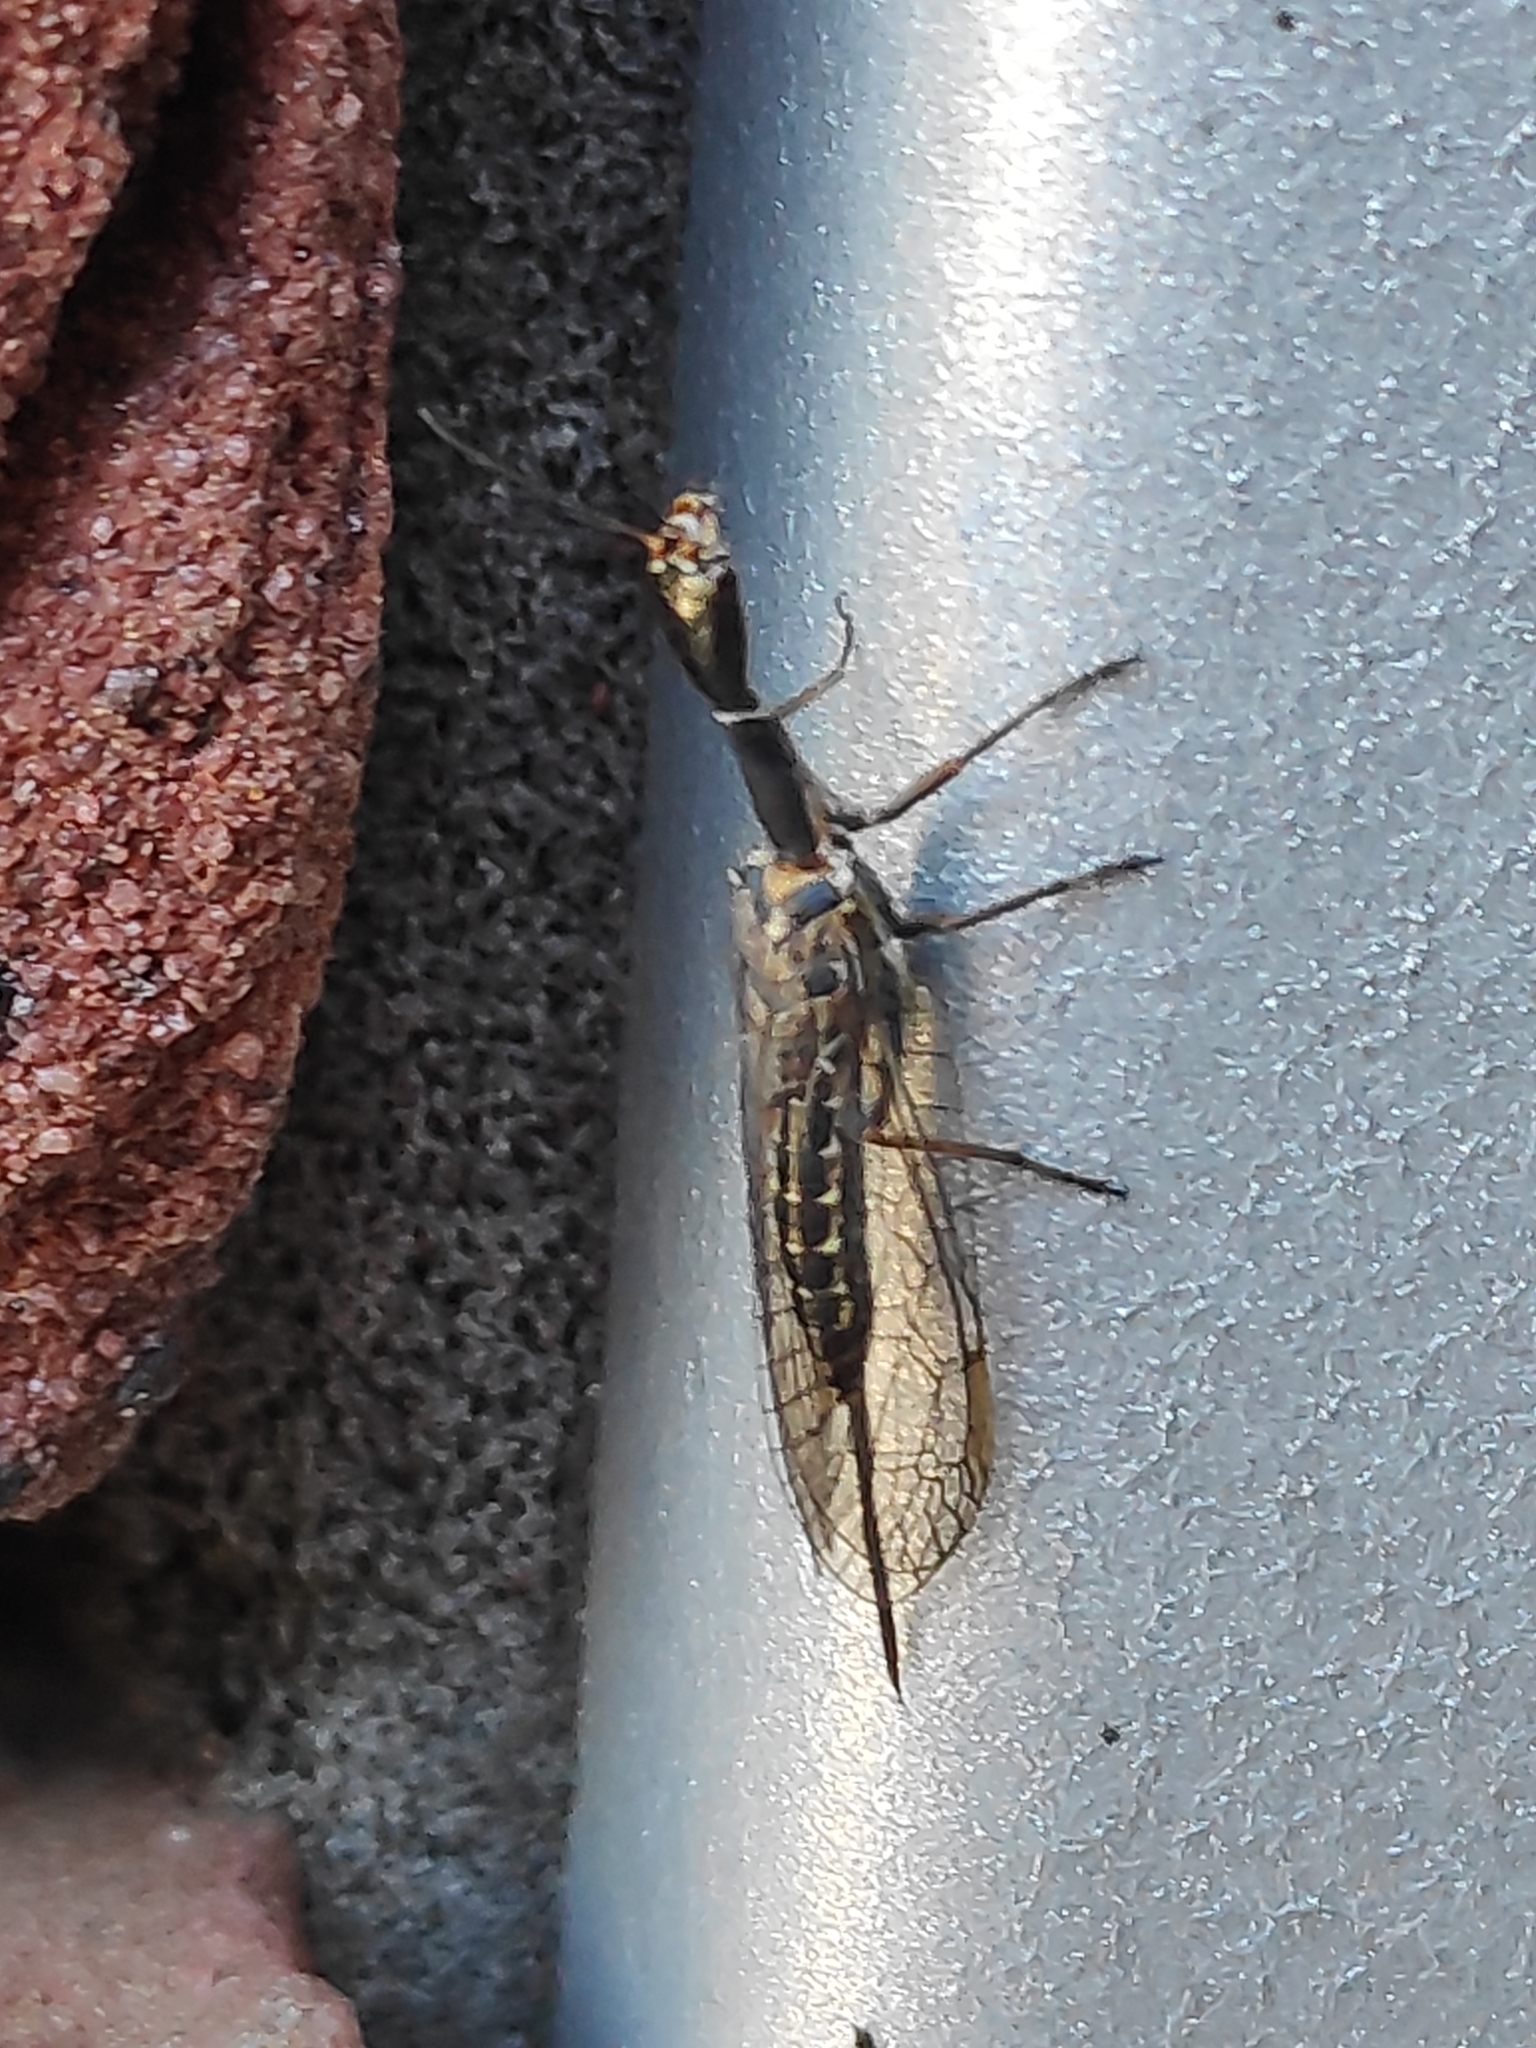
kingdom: Animalia
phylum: Arthropoda
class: Insecta
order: Raphidioptera
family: Raphidiidae
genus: Xanthostigma
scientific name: Xanthostigma xanthostigma
